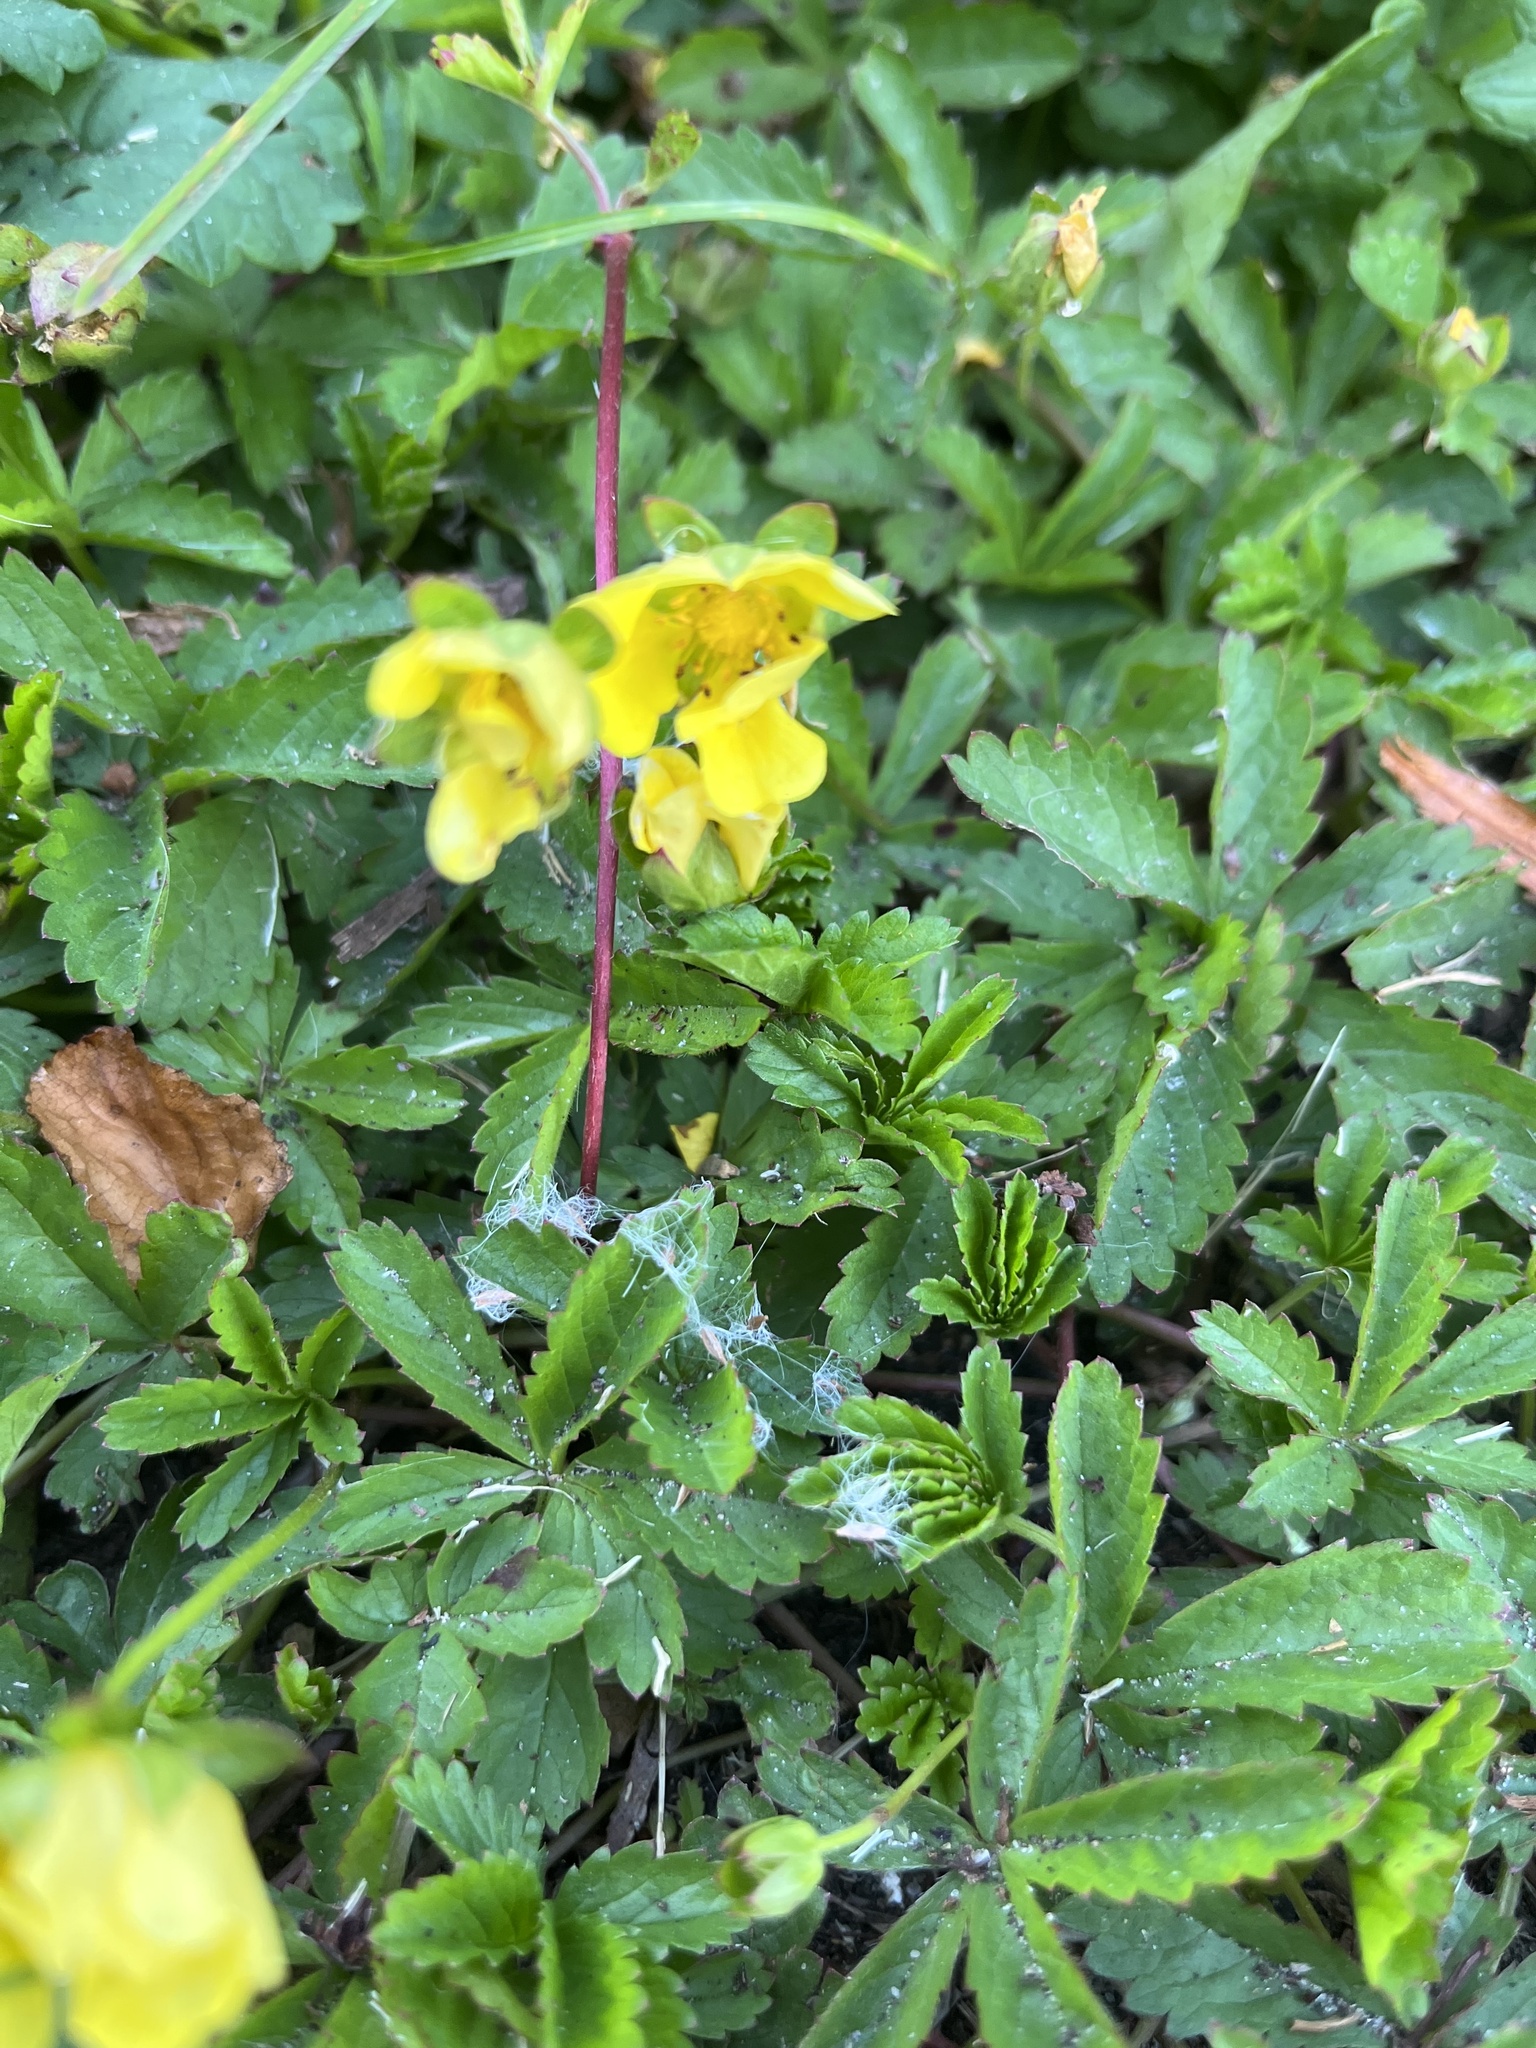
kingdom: Plantae
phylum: Tracheophyta
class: Magnoliopsida
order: Rosales
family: Rosaceae
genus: Potentilla
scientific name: Potentilla reptans
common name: Creeping cinquefoil
